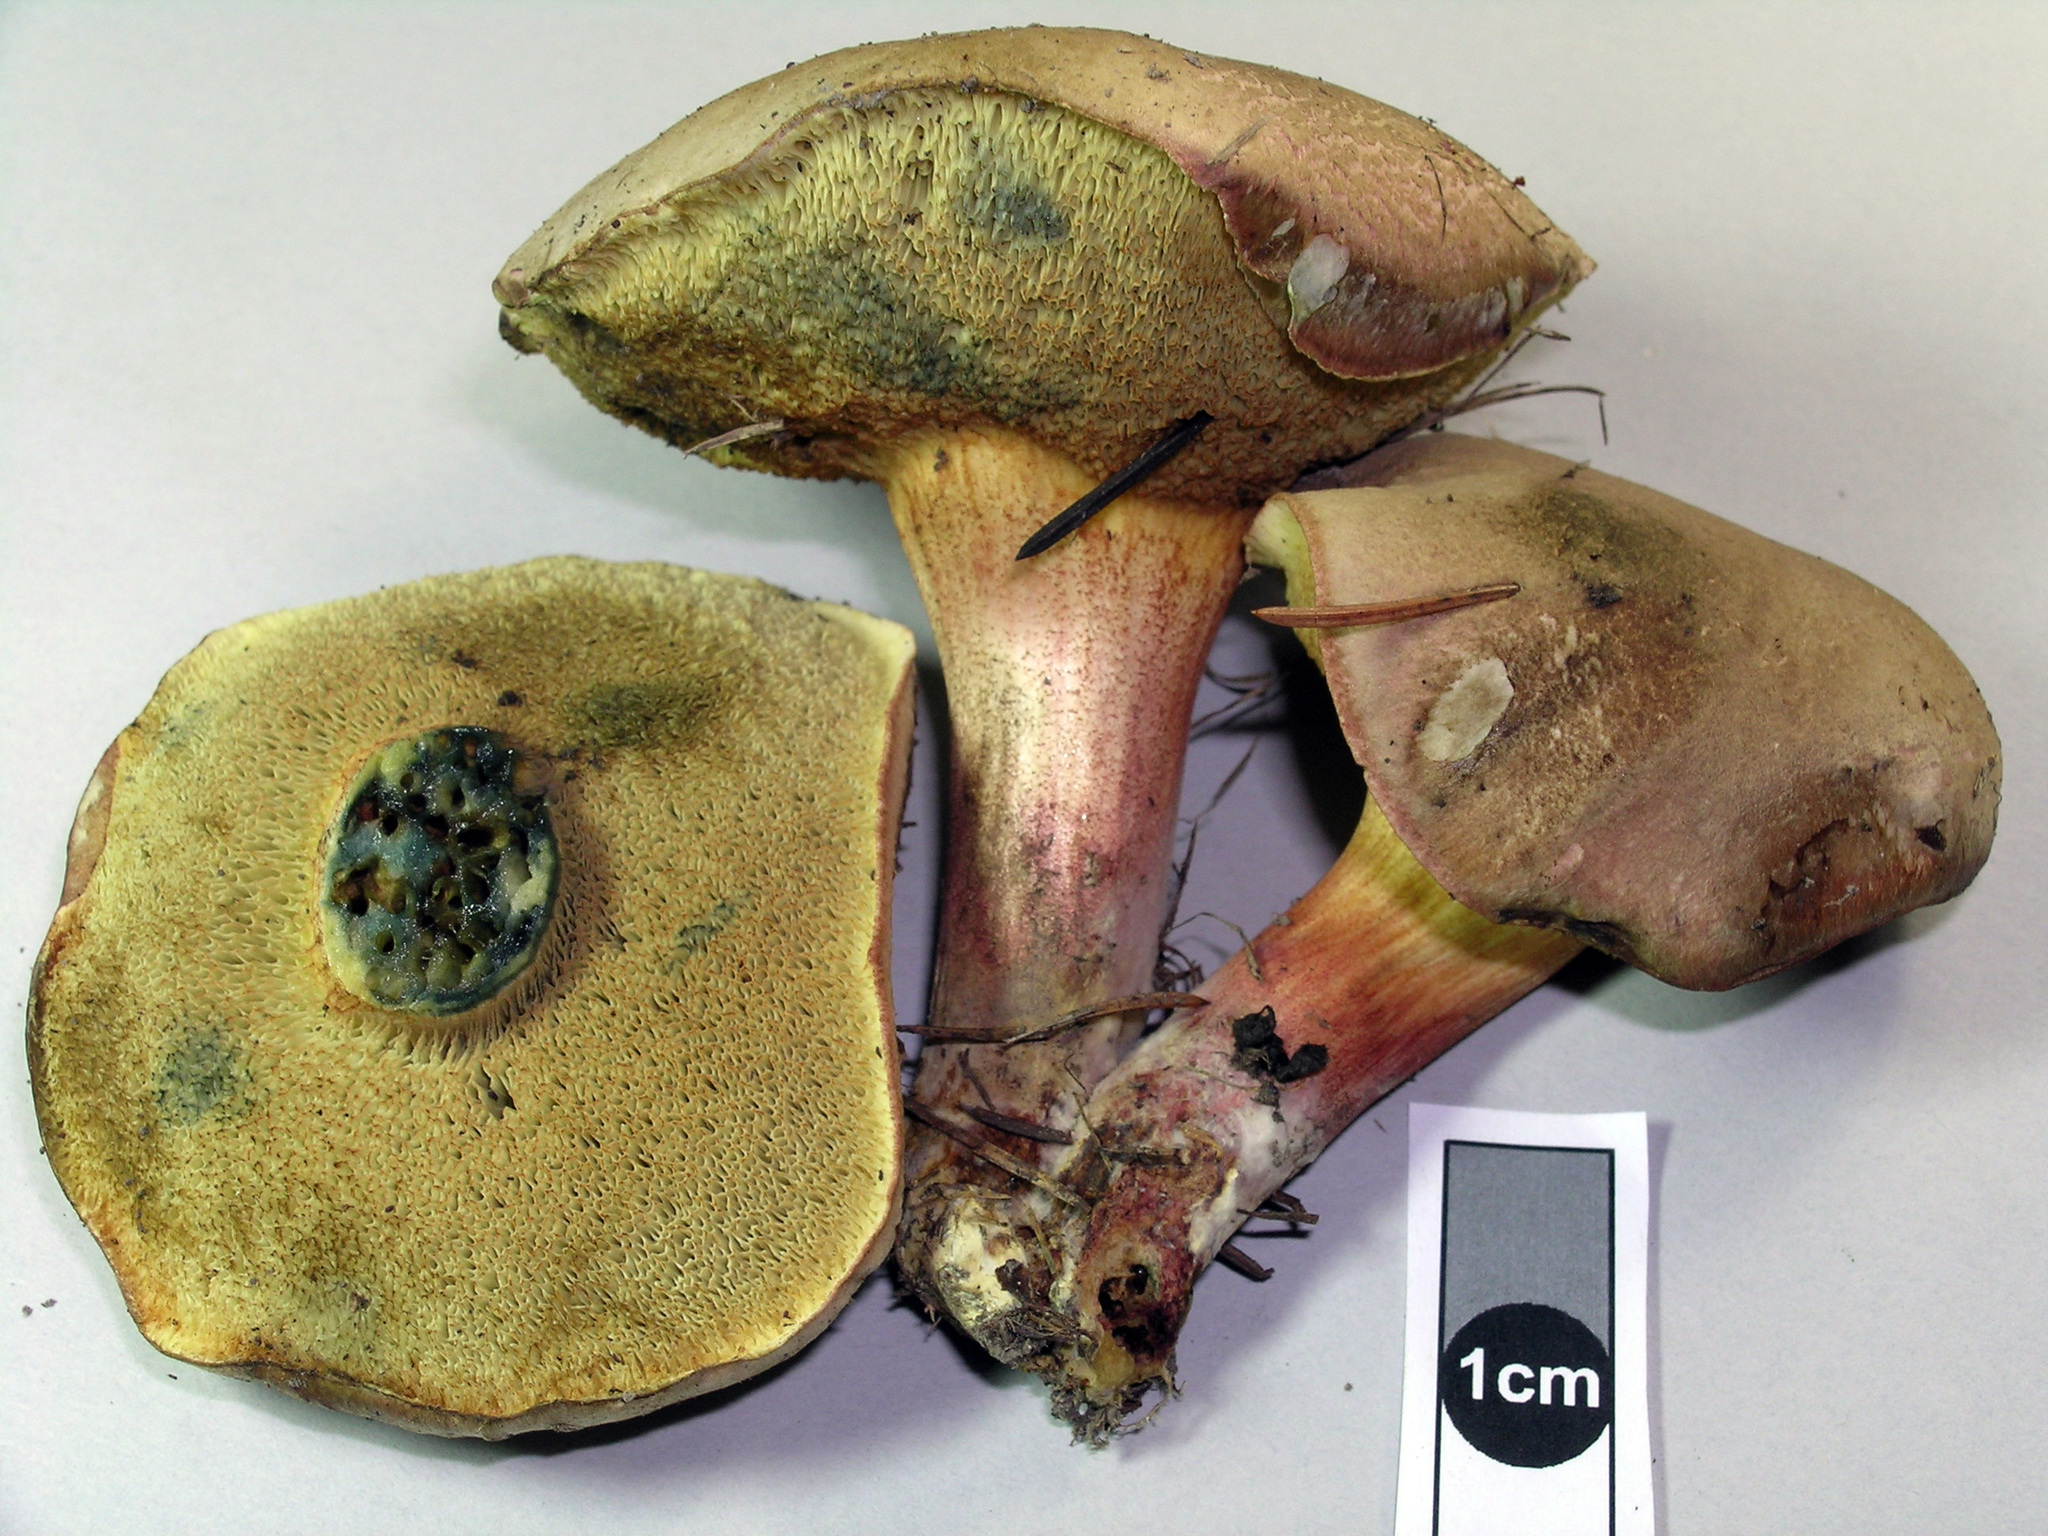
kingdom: Fungi
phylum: Basidiomycota
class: Agaricomycetes
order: Boletales
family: Boletaceae
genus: Xerocomellus
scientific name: Xerocomellus cisalpinus
